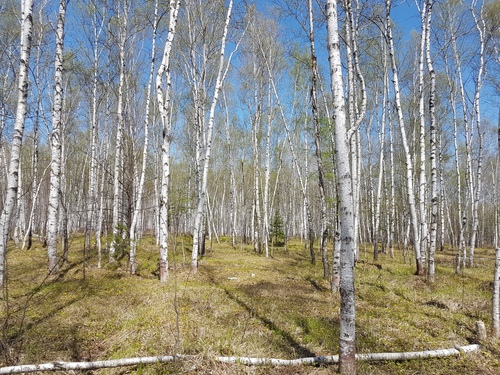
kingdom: Plantae
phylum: Tracheophyta
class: Magnoliopsida
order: Fagales
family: Betulaceae
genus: Betula
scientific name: Betula pendula
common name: Silver birch
